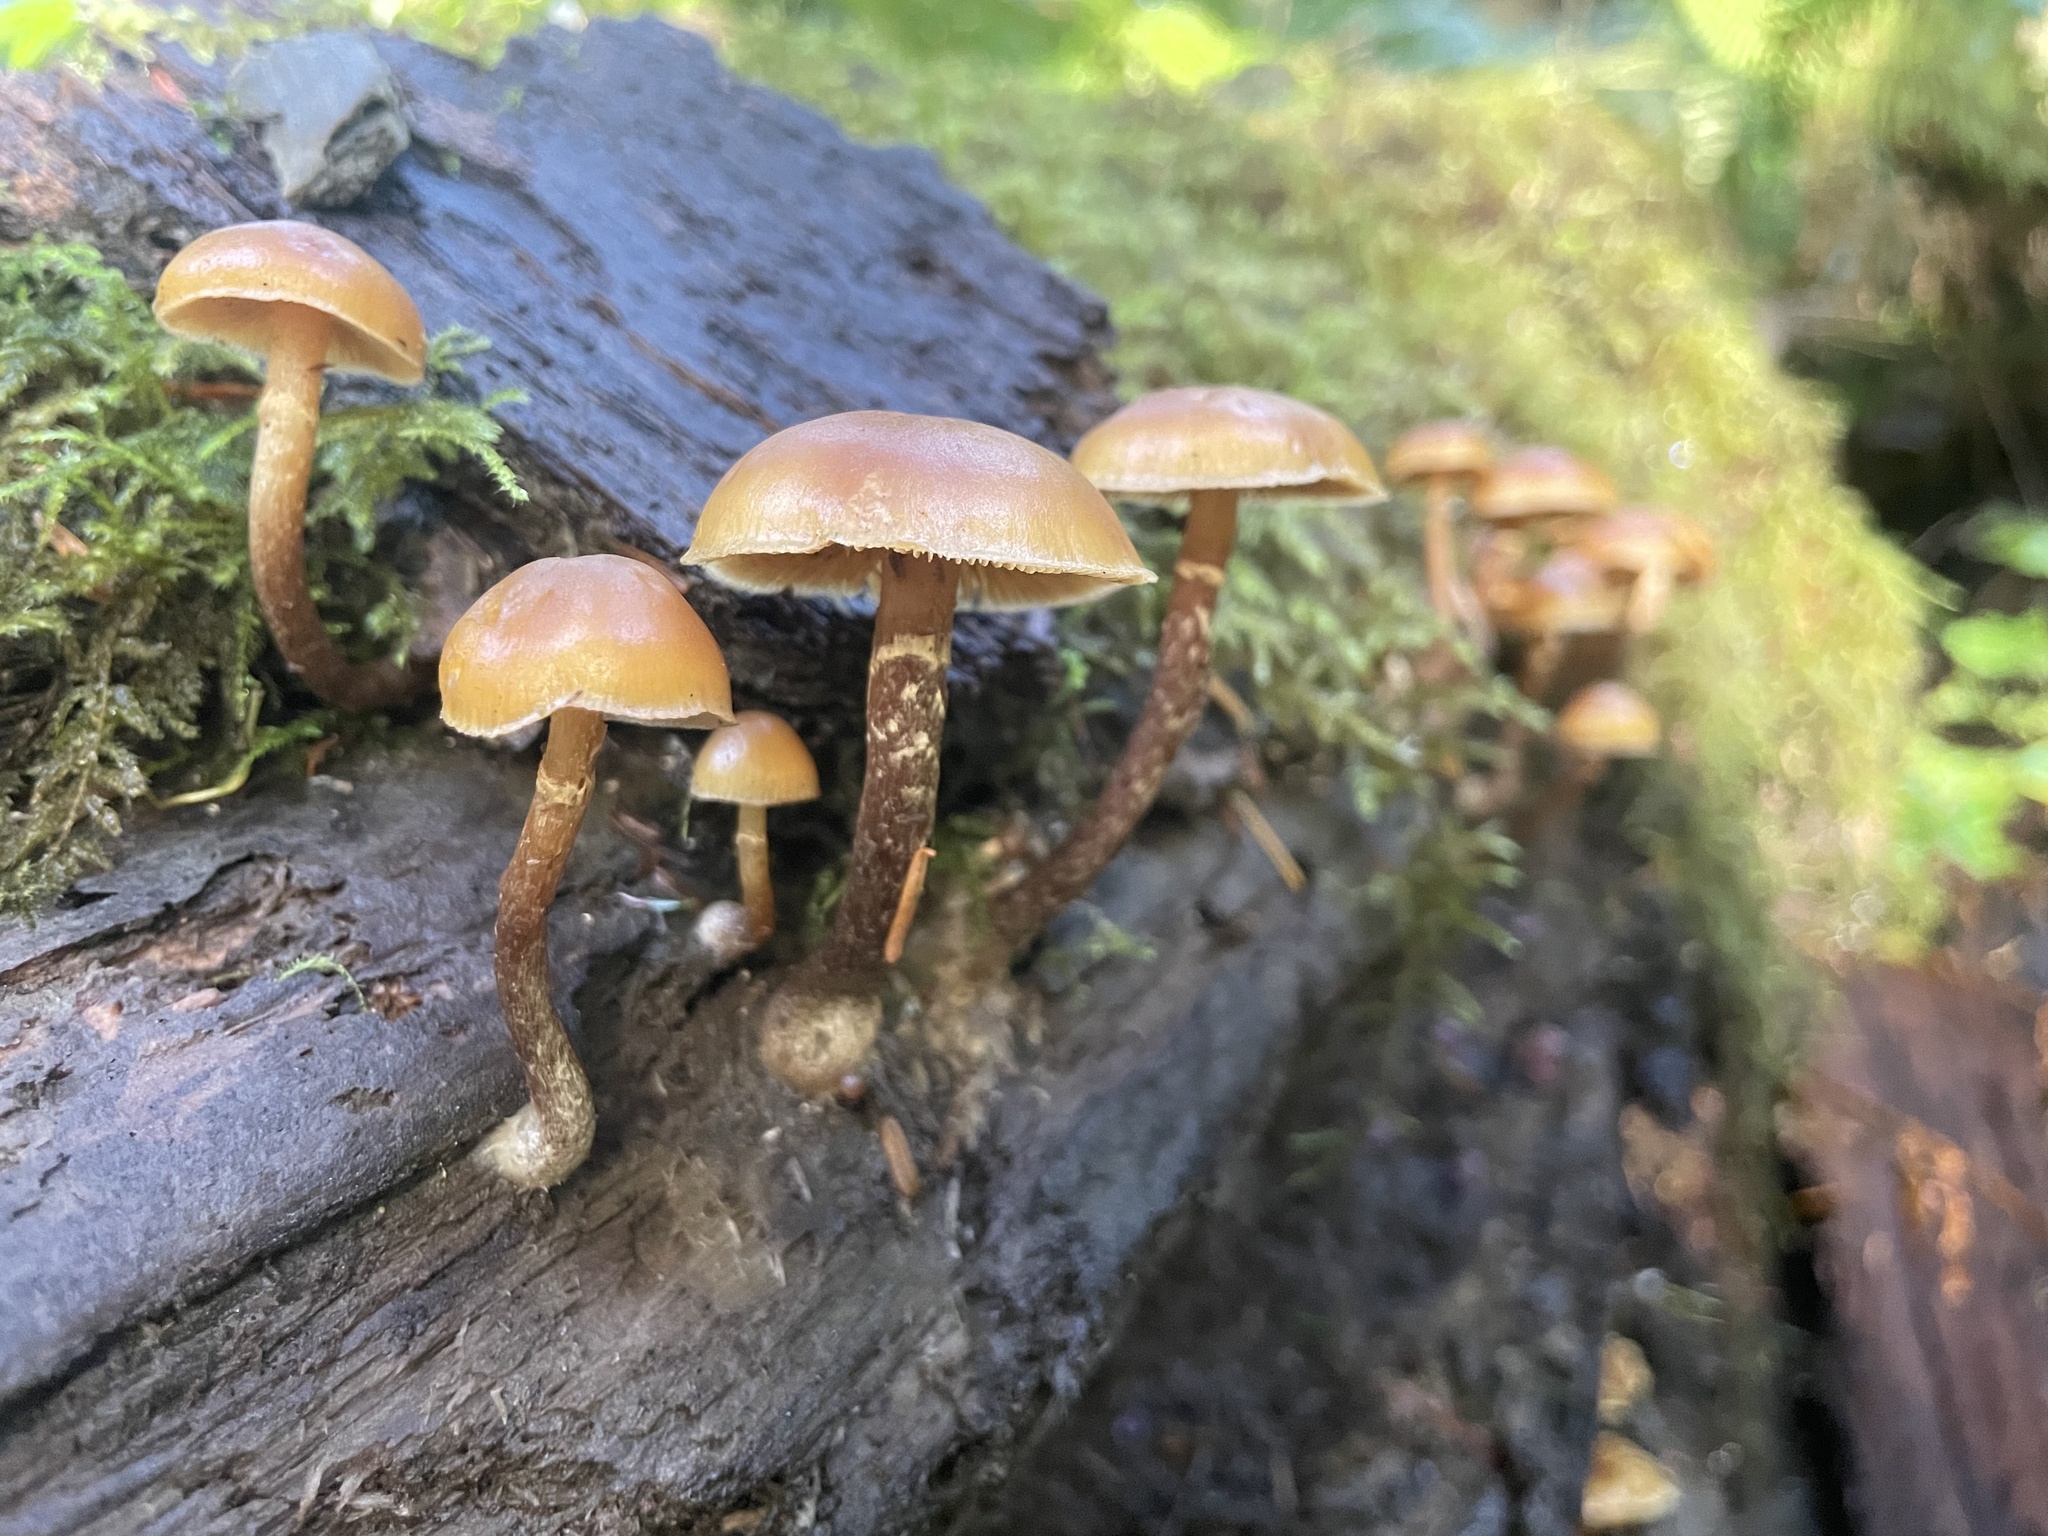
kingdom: Fungi
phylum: Basidiomycota
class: Agaricomycetes
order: Agaricales
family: Hymenogastraceae
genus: Galerina
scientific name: Galerina marginata
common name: Funeral bell
